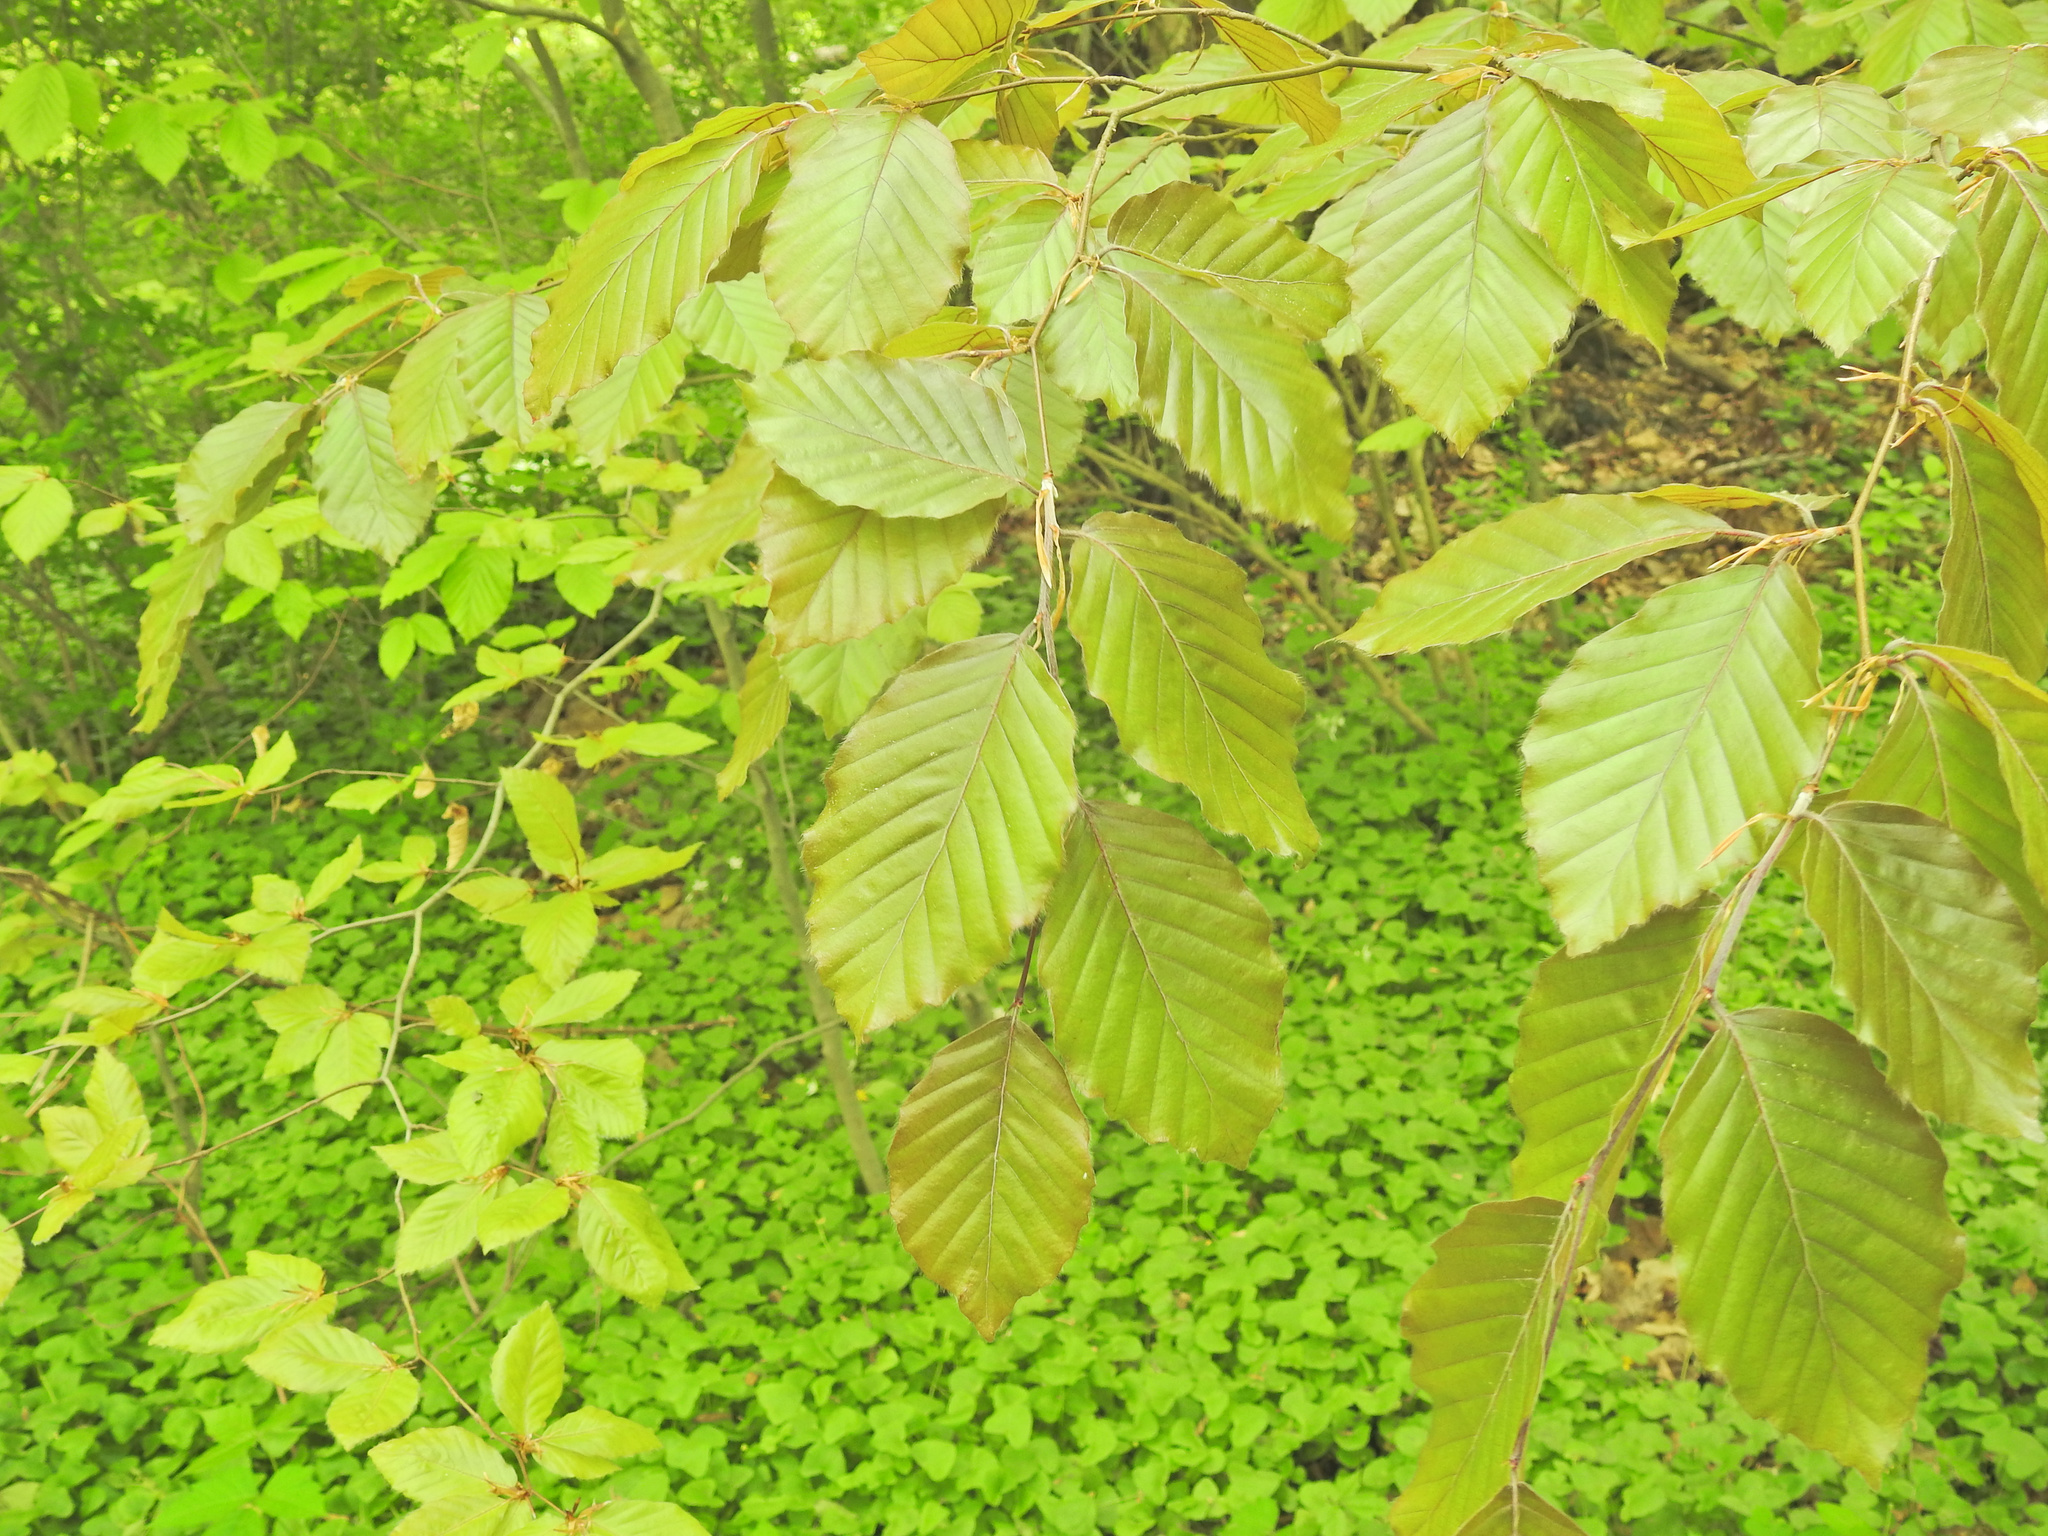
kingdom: Plantae
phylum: Tracheophyta
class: Magnoliopsida
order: Fagales
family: Fagaceae
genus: Fagus
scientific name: Fagus sylvatica
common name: Beech
